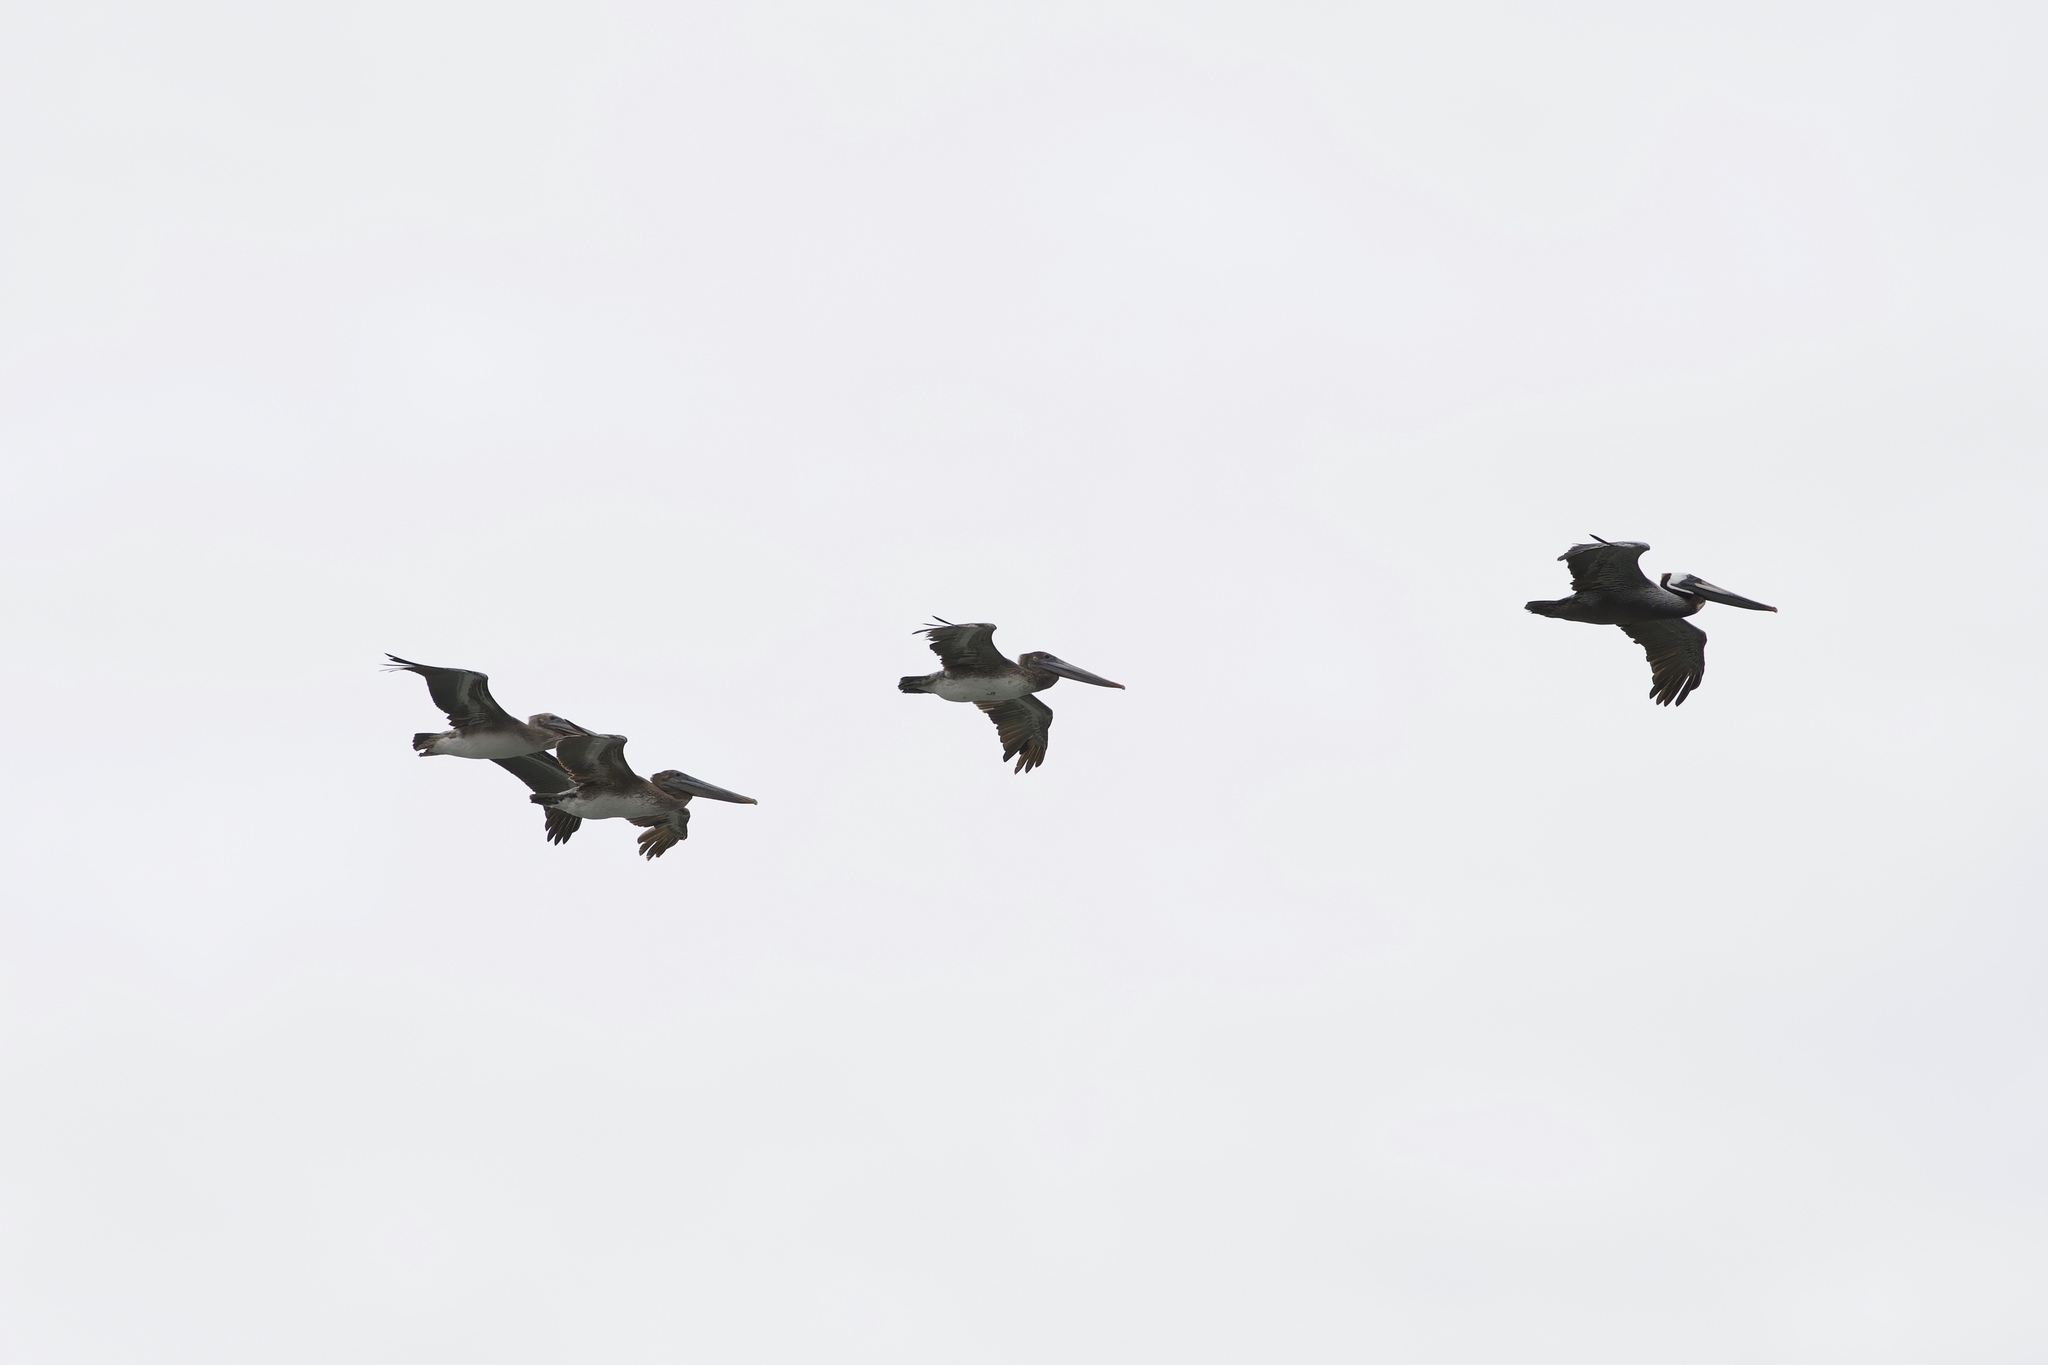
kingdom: Animalia
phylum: Chordata
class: Aves
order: Pelecaniformes
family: Pelecanidae
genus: Pelecanus
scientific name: Pelecanus occidentalis
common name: Brown pelican
